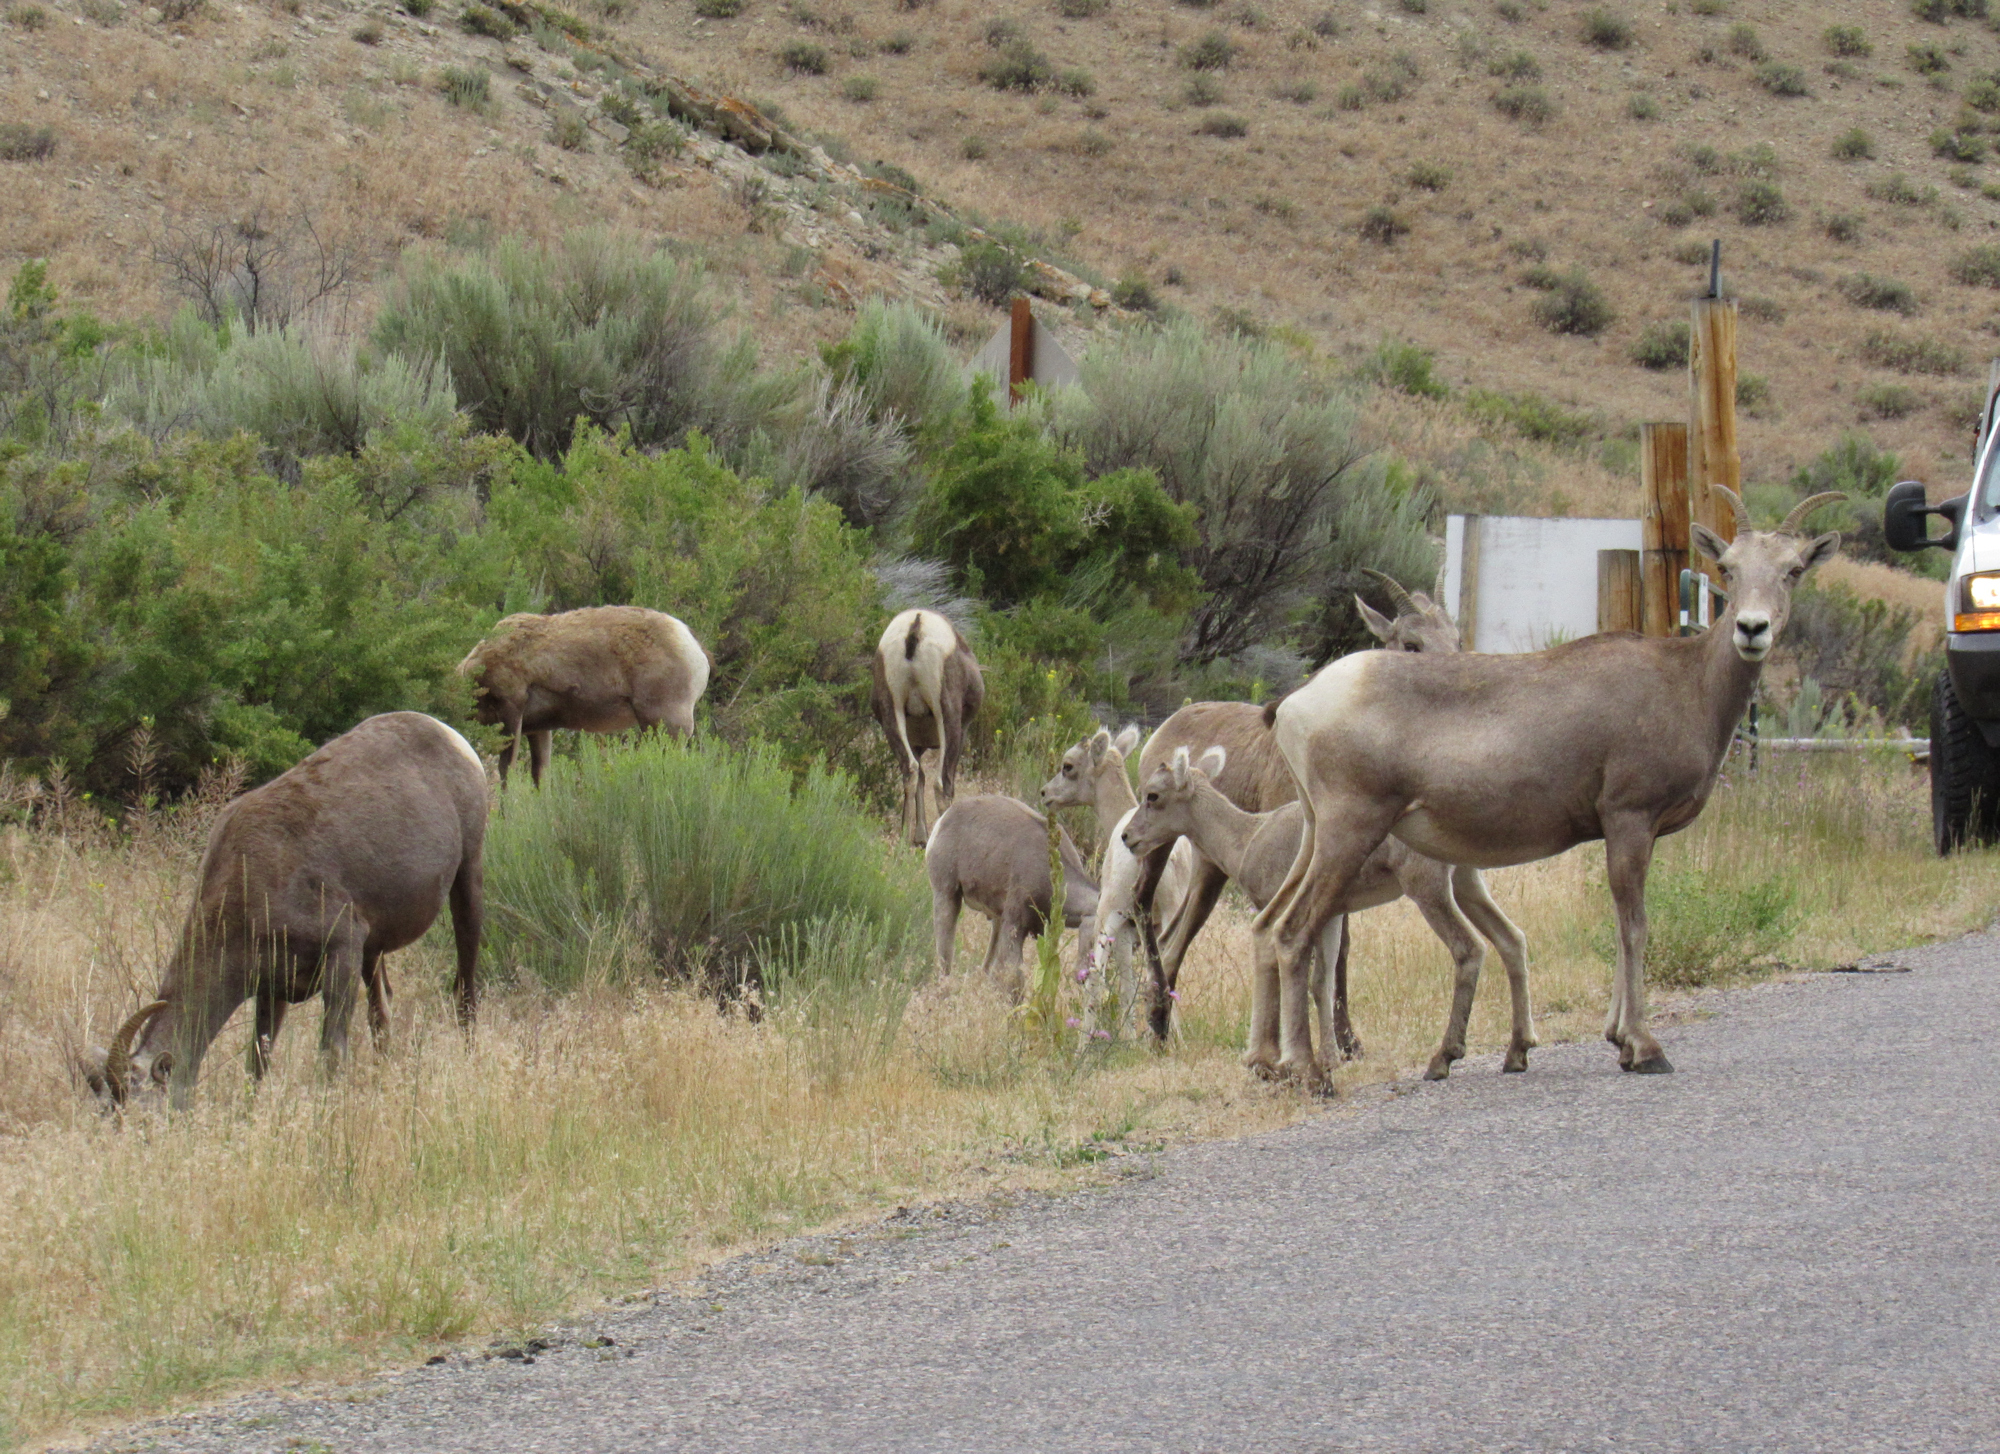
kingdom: Animalia
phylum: Chordata
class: Mammalia
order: Artiodactyla
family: Bovidae
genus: Ovis
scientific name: Ovis canadensis
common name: Bighorn sheep
